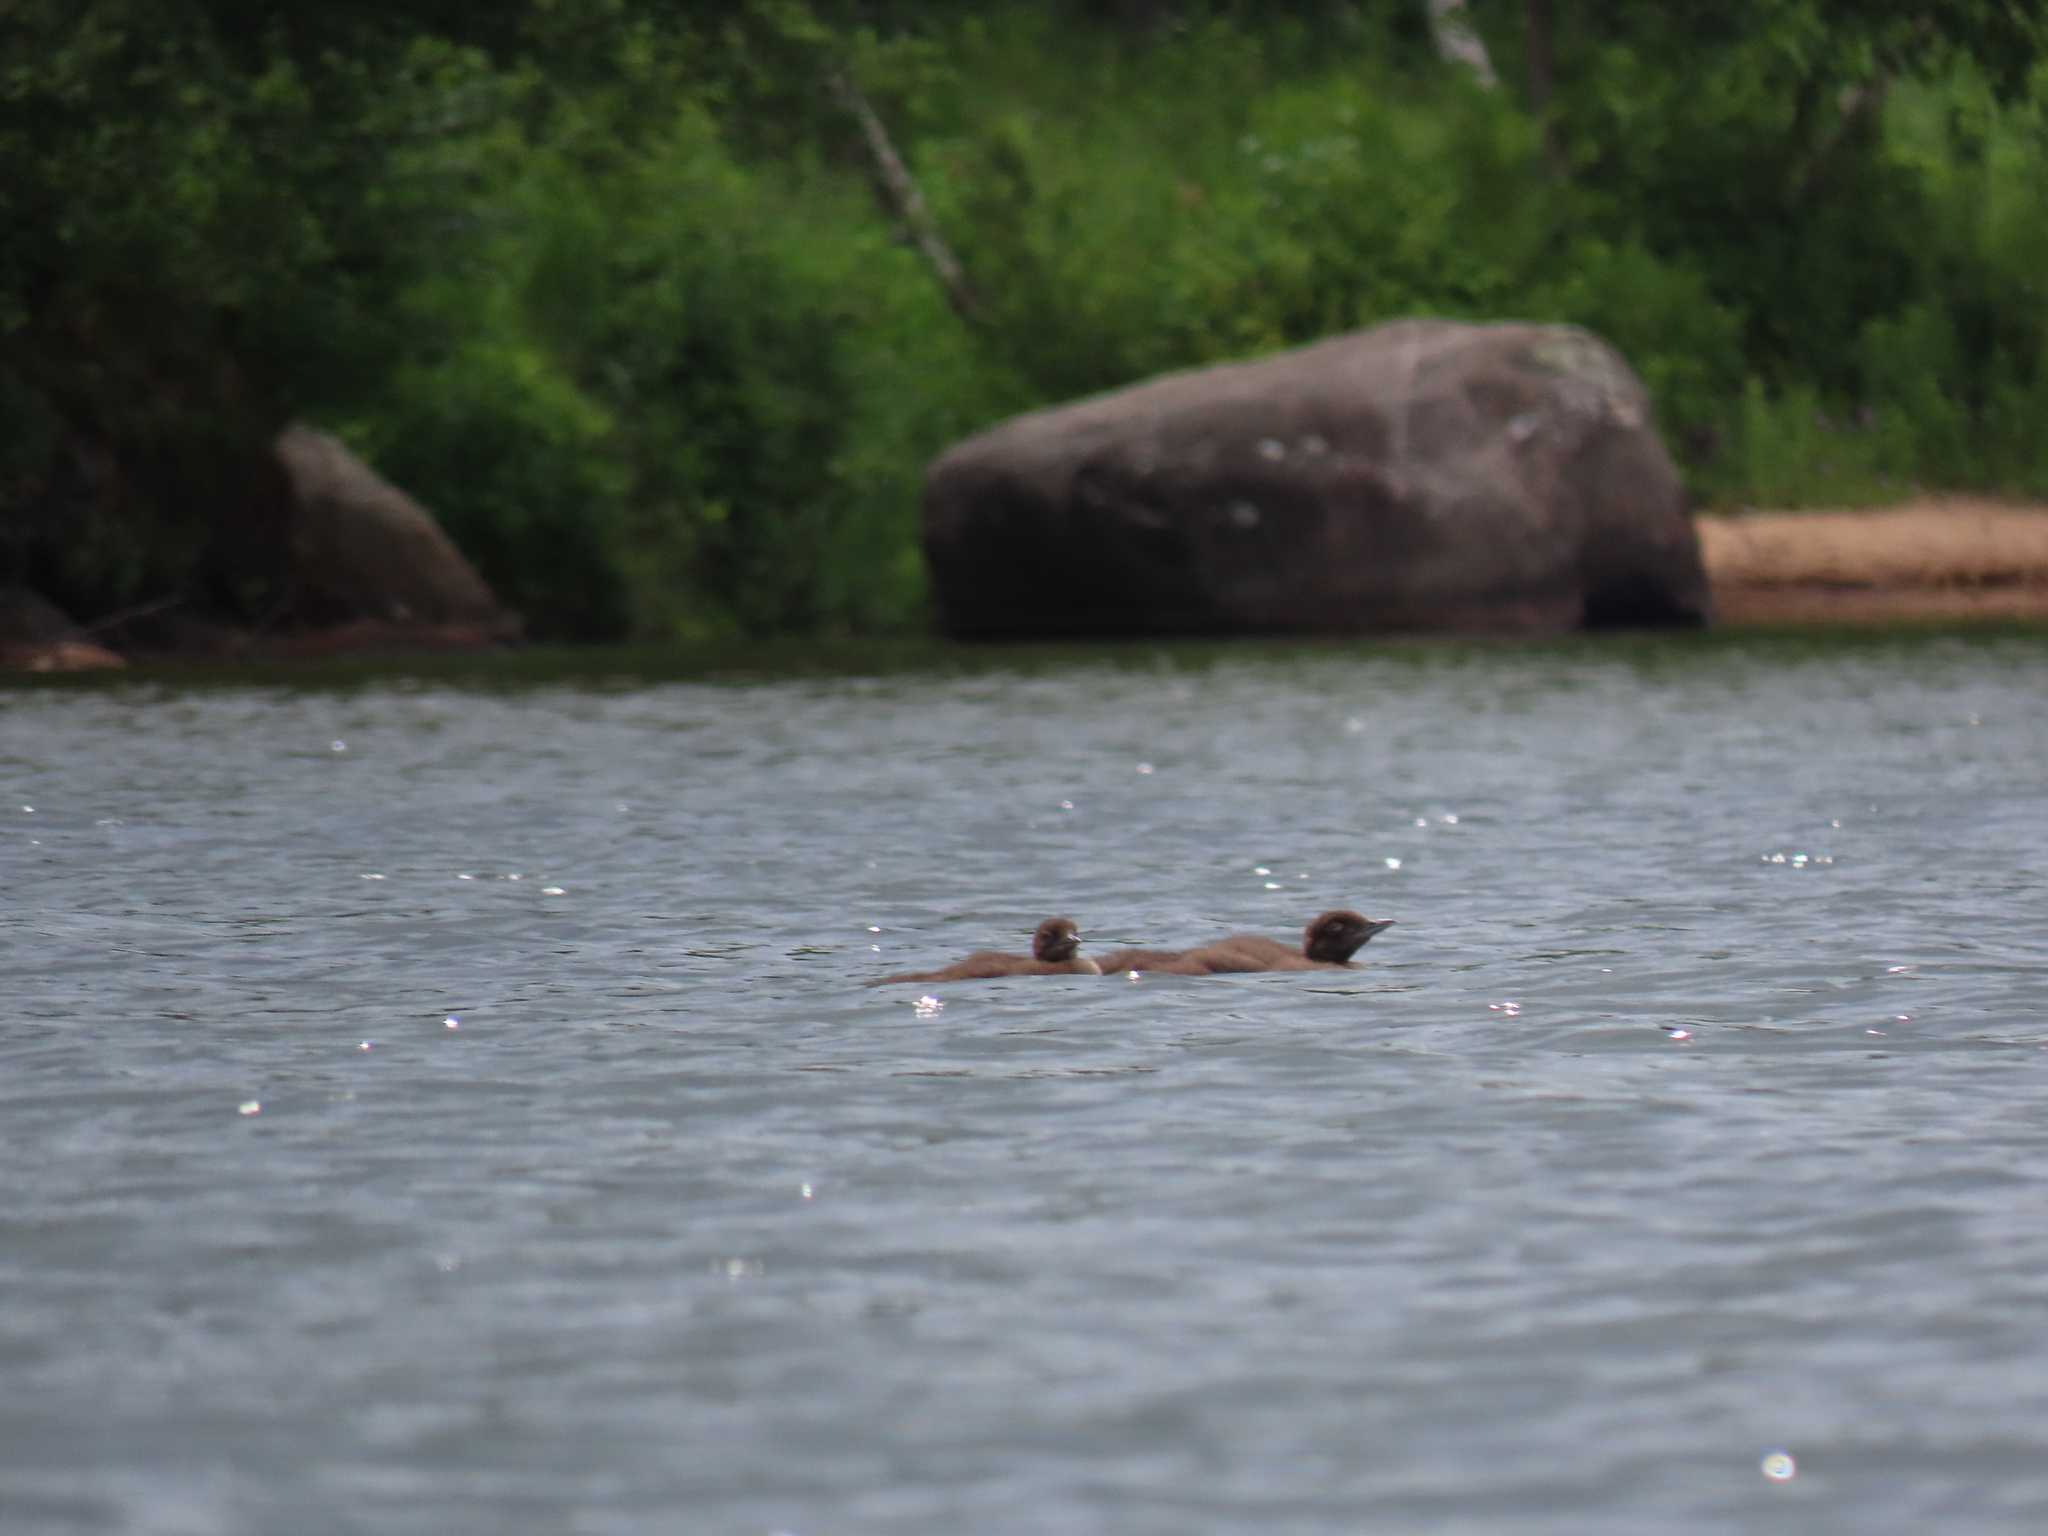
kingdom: Animalia
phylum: Chordata
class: Aves
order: Gaviiformes
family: Gaviidae
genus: Gavia
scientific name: Gavia immer
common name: Common loon
